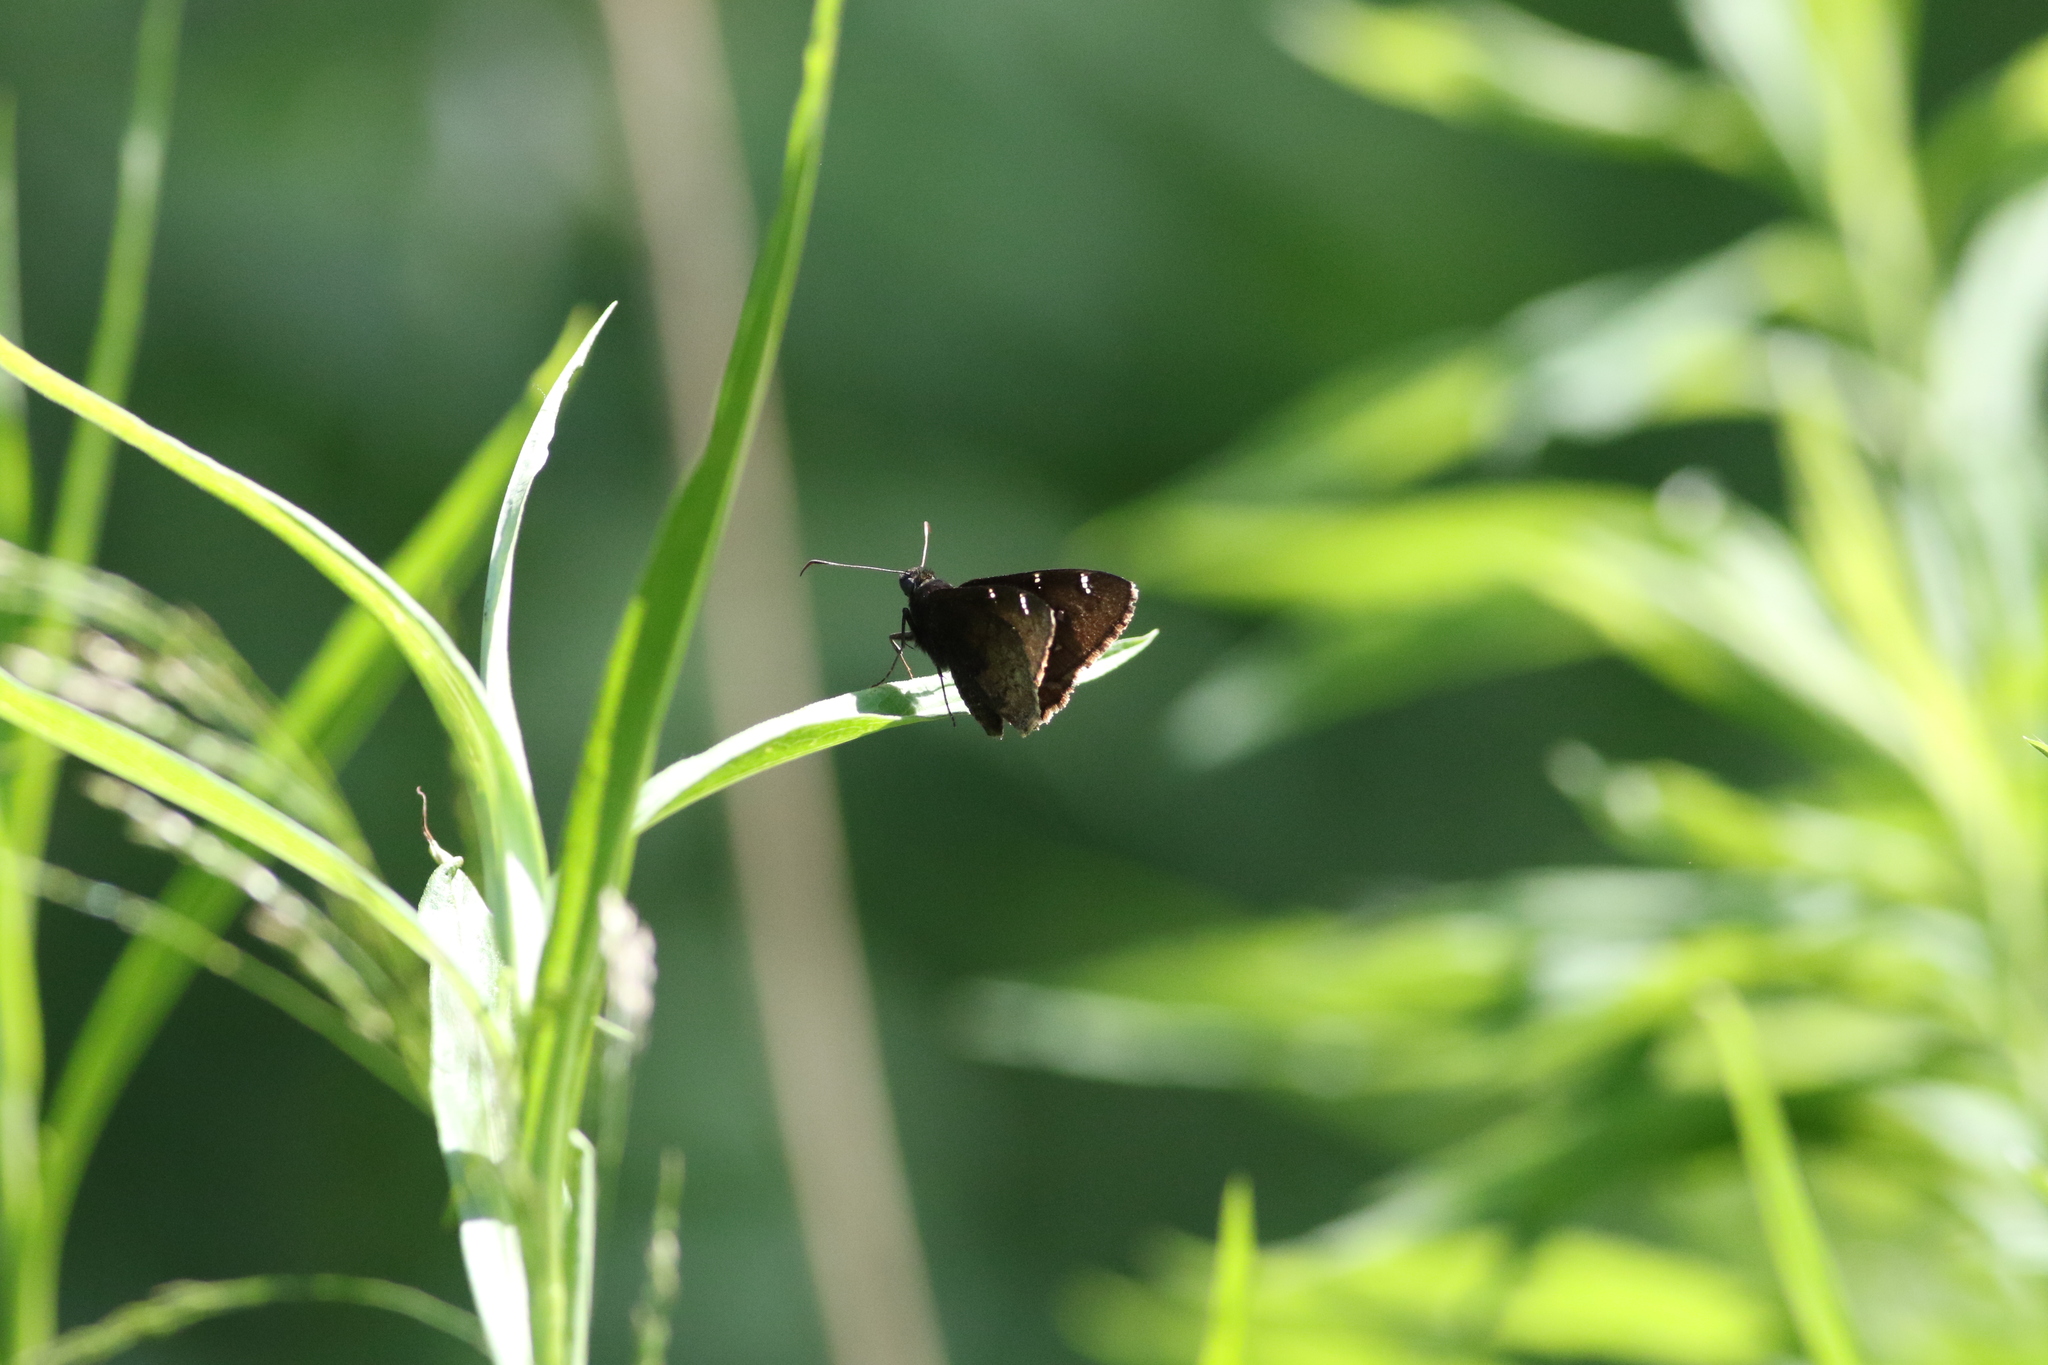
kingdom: Animalia
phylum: Arthropoda
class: Insecta
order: Lepidoptera
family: Hesperiidae
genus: Thorybes
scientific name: Thorybes pylades
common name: Northern cloudywing
